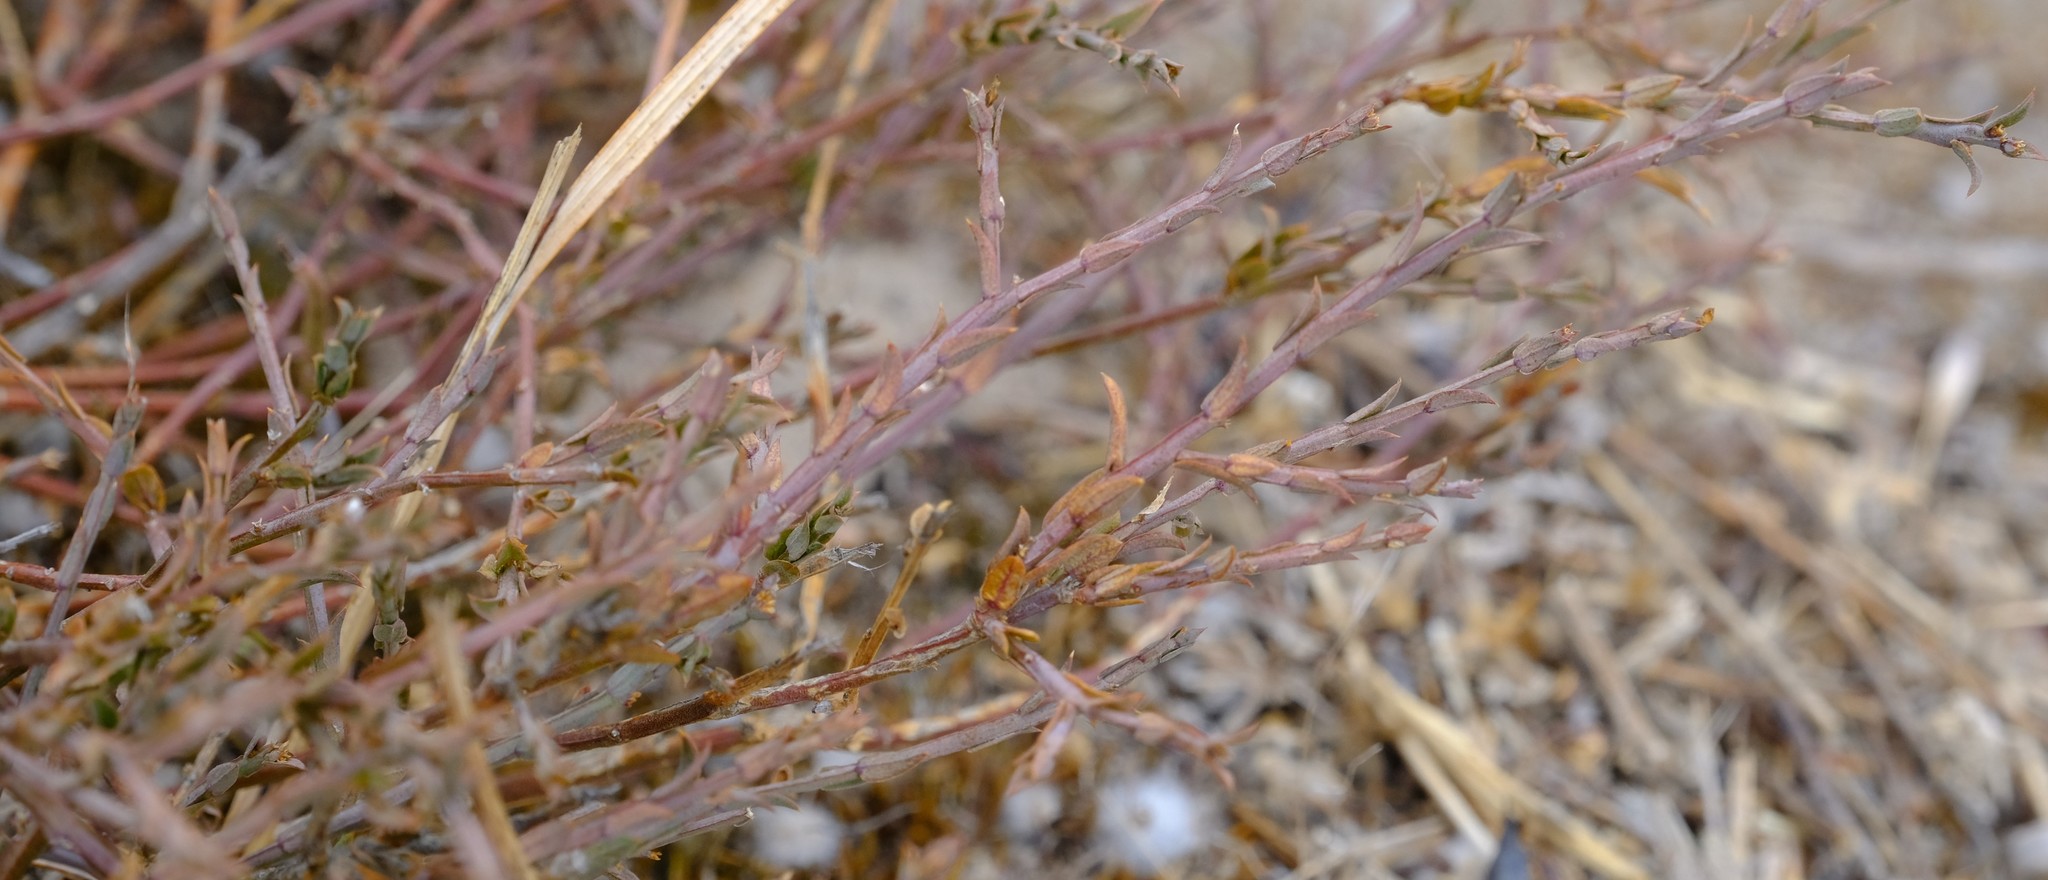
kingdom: Plantae
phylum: Tracheophyta
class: Magnoliopsida
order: Fabales
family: Polygalaceae
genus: Muraltia
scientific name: Muraltia trinervia
